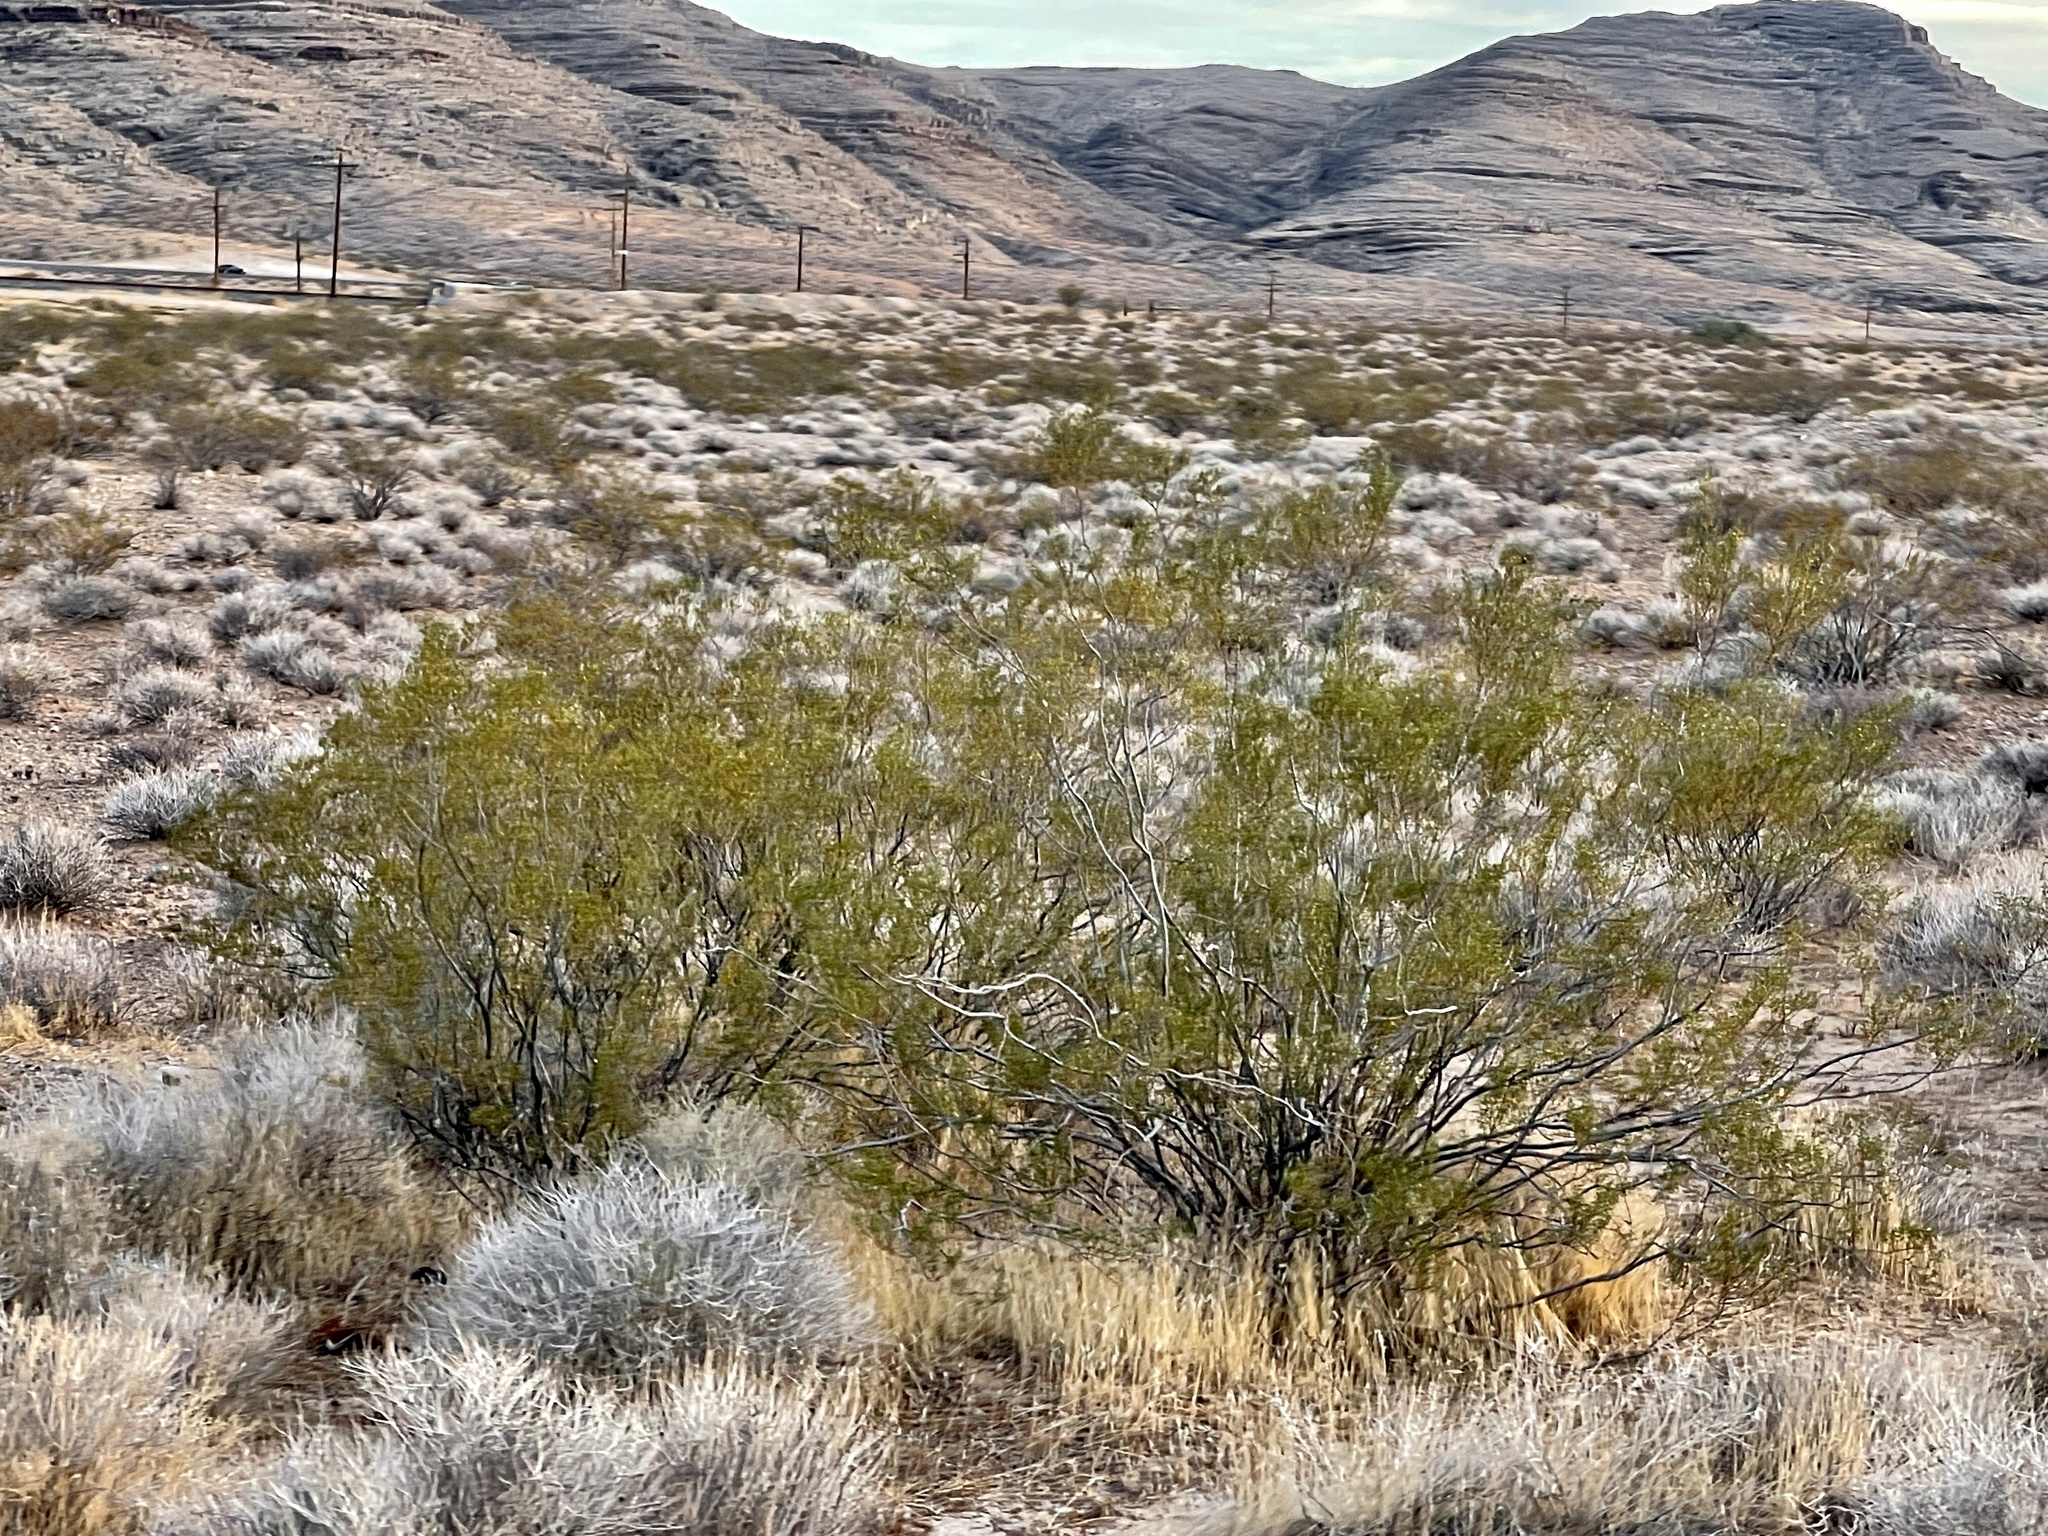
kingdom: Plantae
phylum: Tracheophyta
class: Magnoliopsida
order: Zygophyllales
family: Zygophyllaceae
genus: Larrea
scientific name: Larrea tridentata
